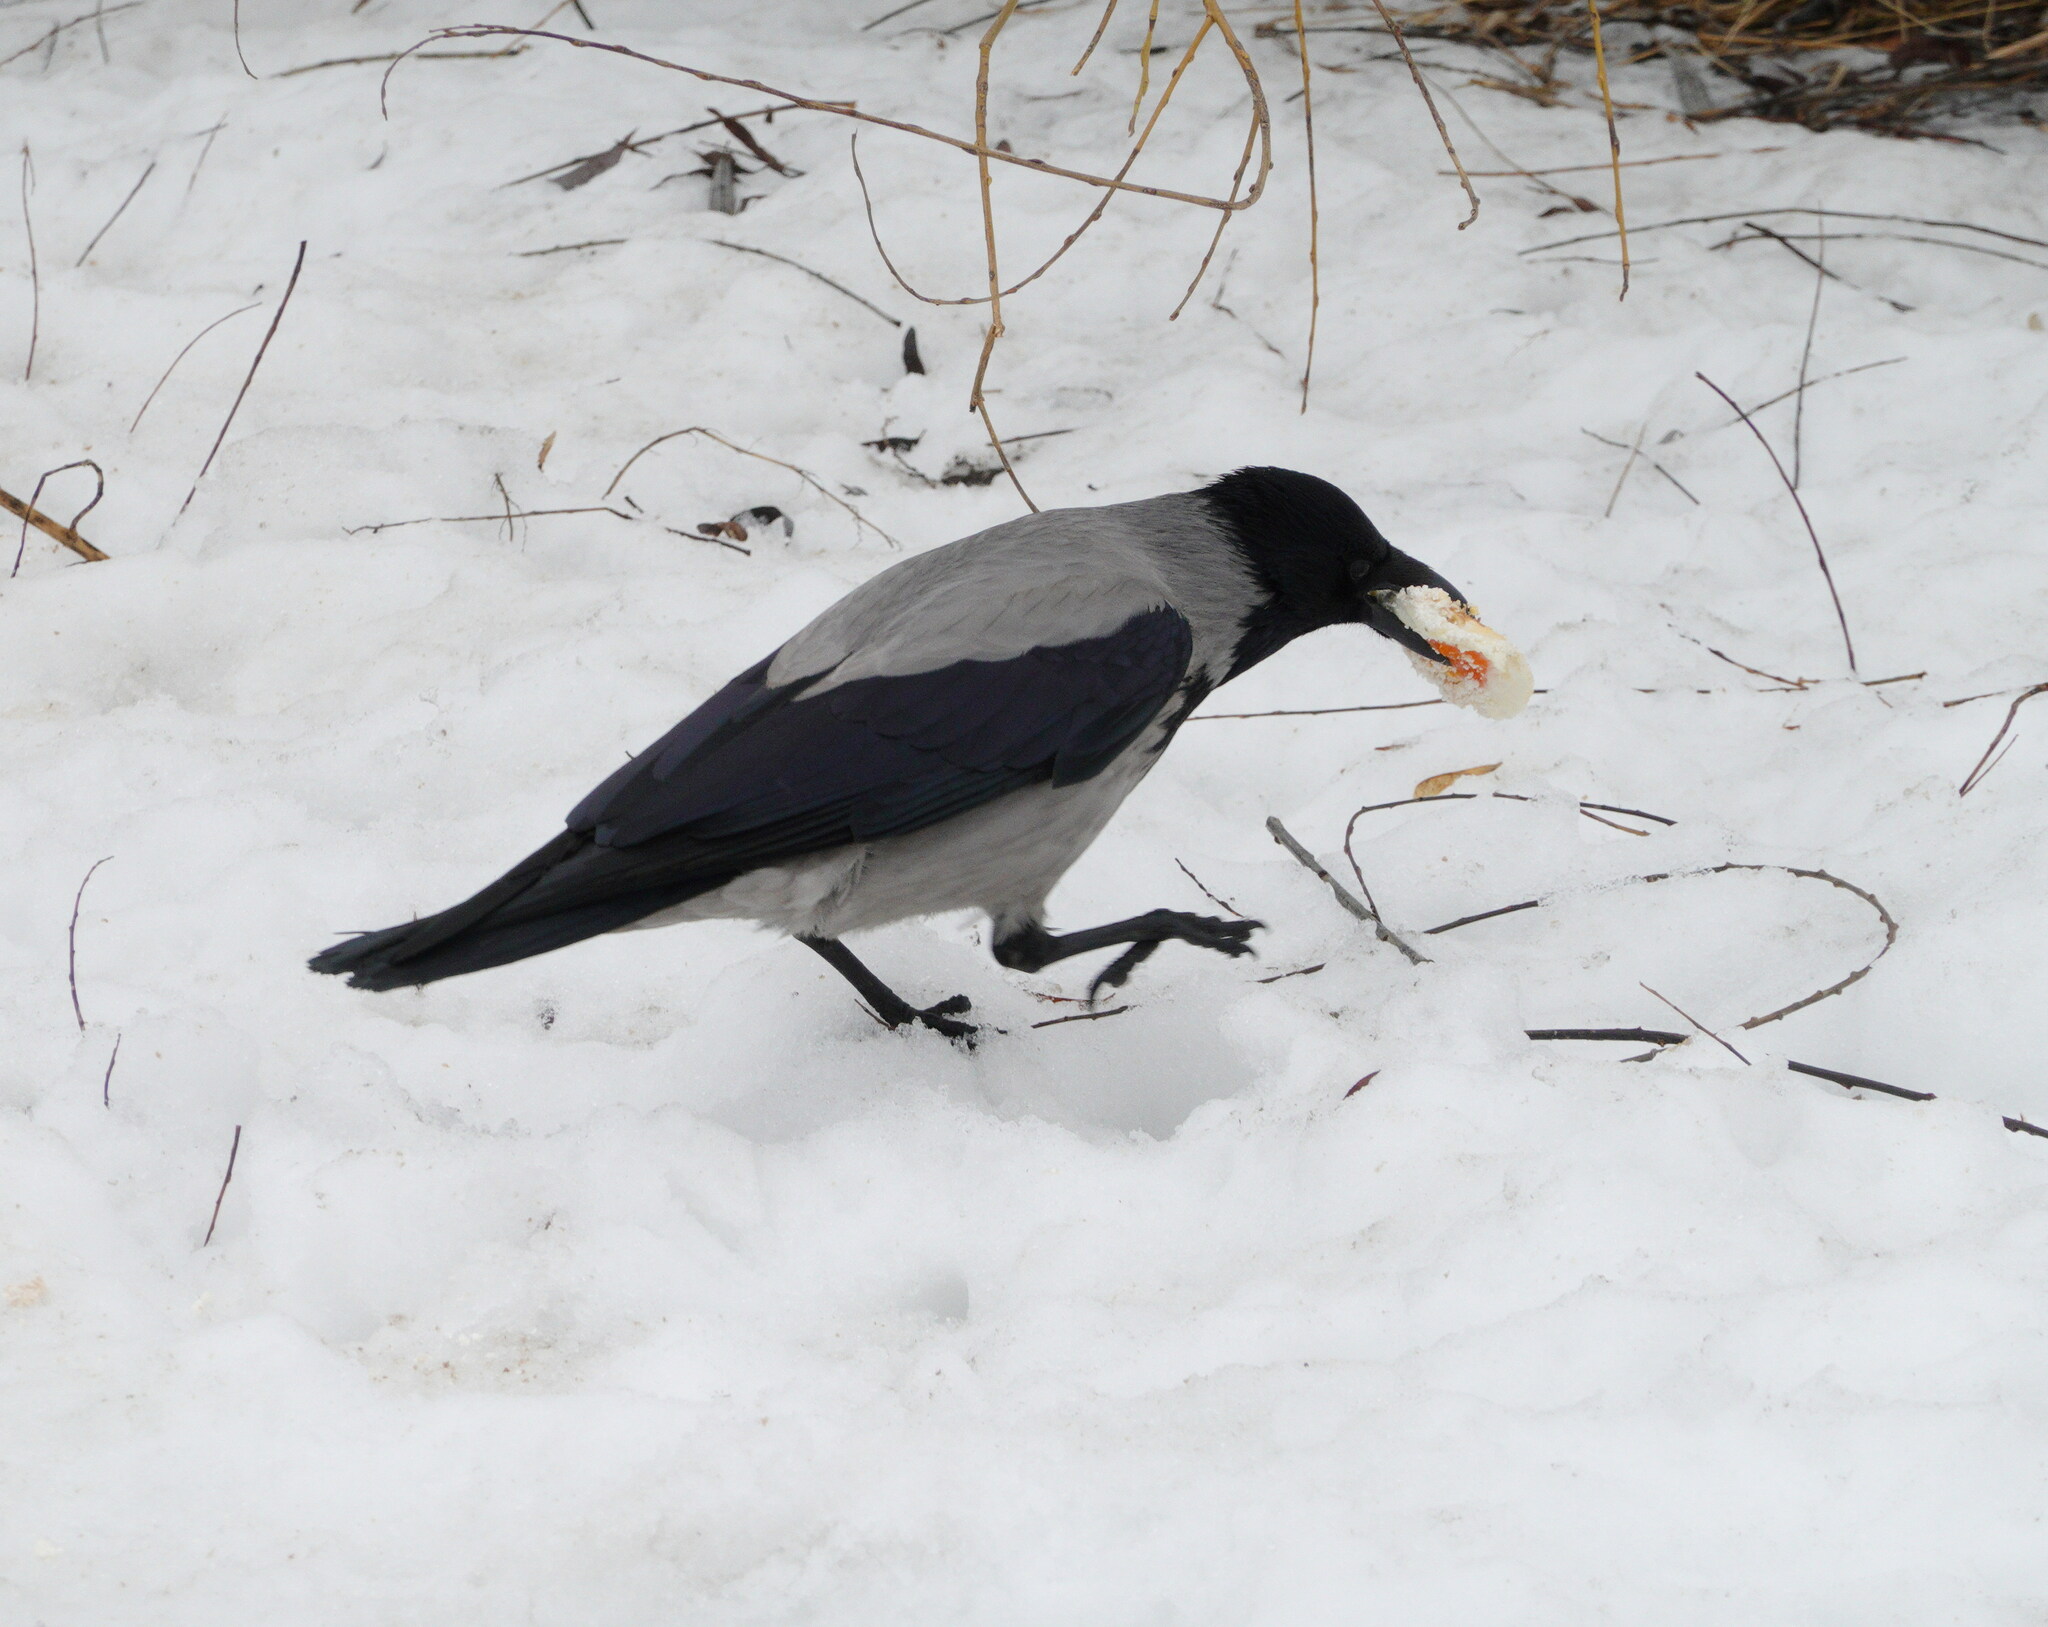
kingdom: Animalia
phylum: Chordata
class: Aves
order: Passeriformes
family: Corvidae
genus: Corvus
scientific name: Corvus cornix
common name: Hooded crow
